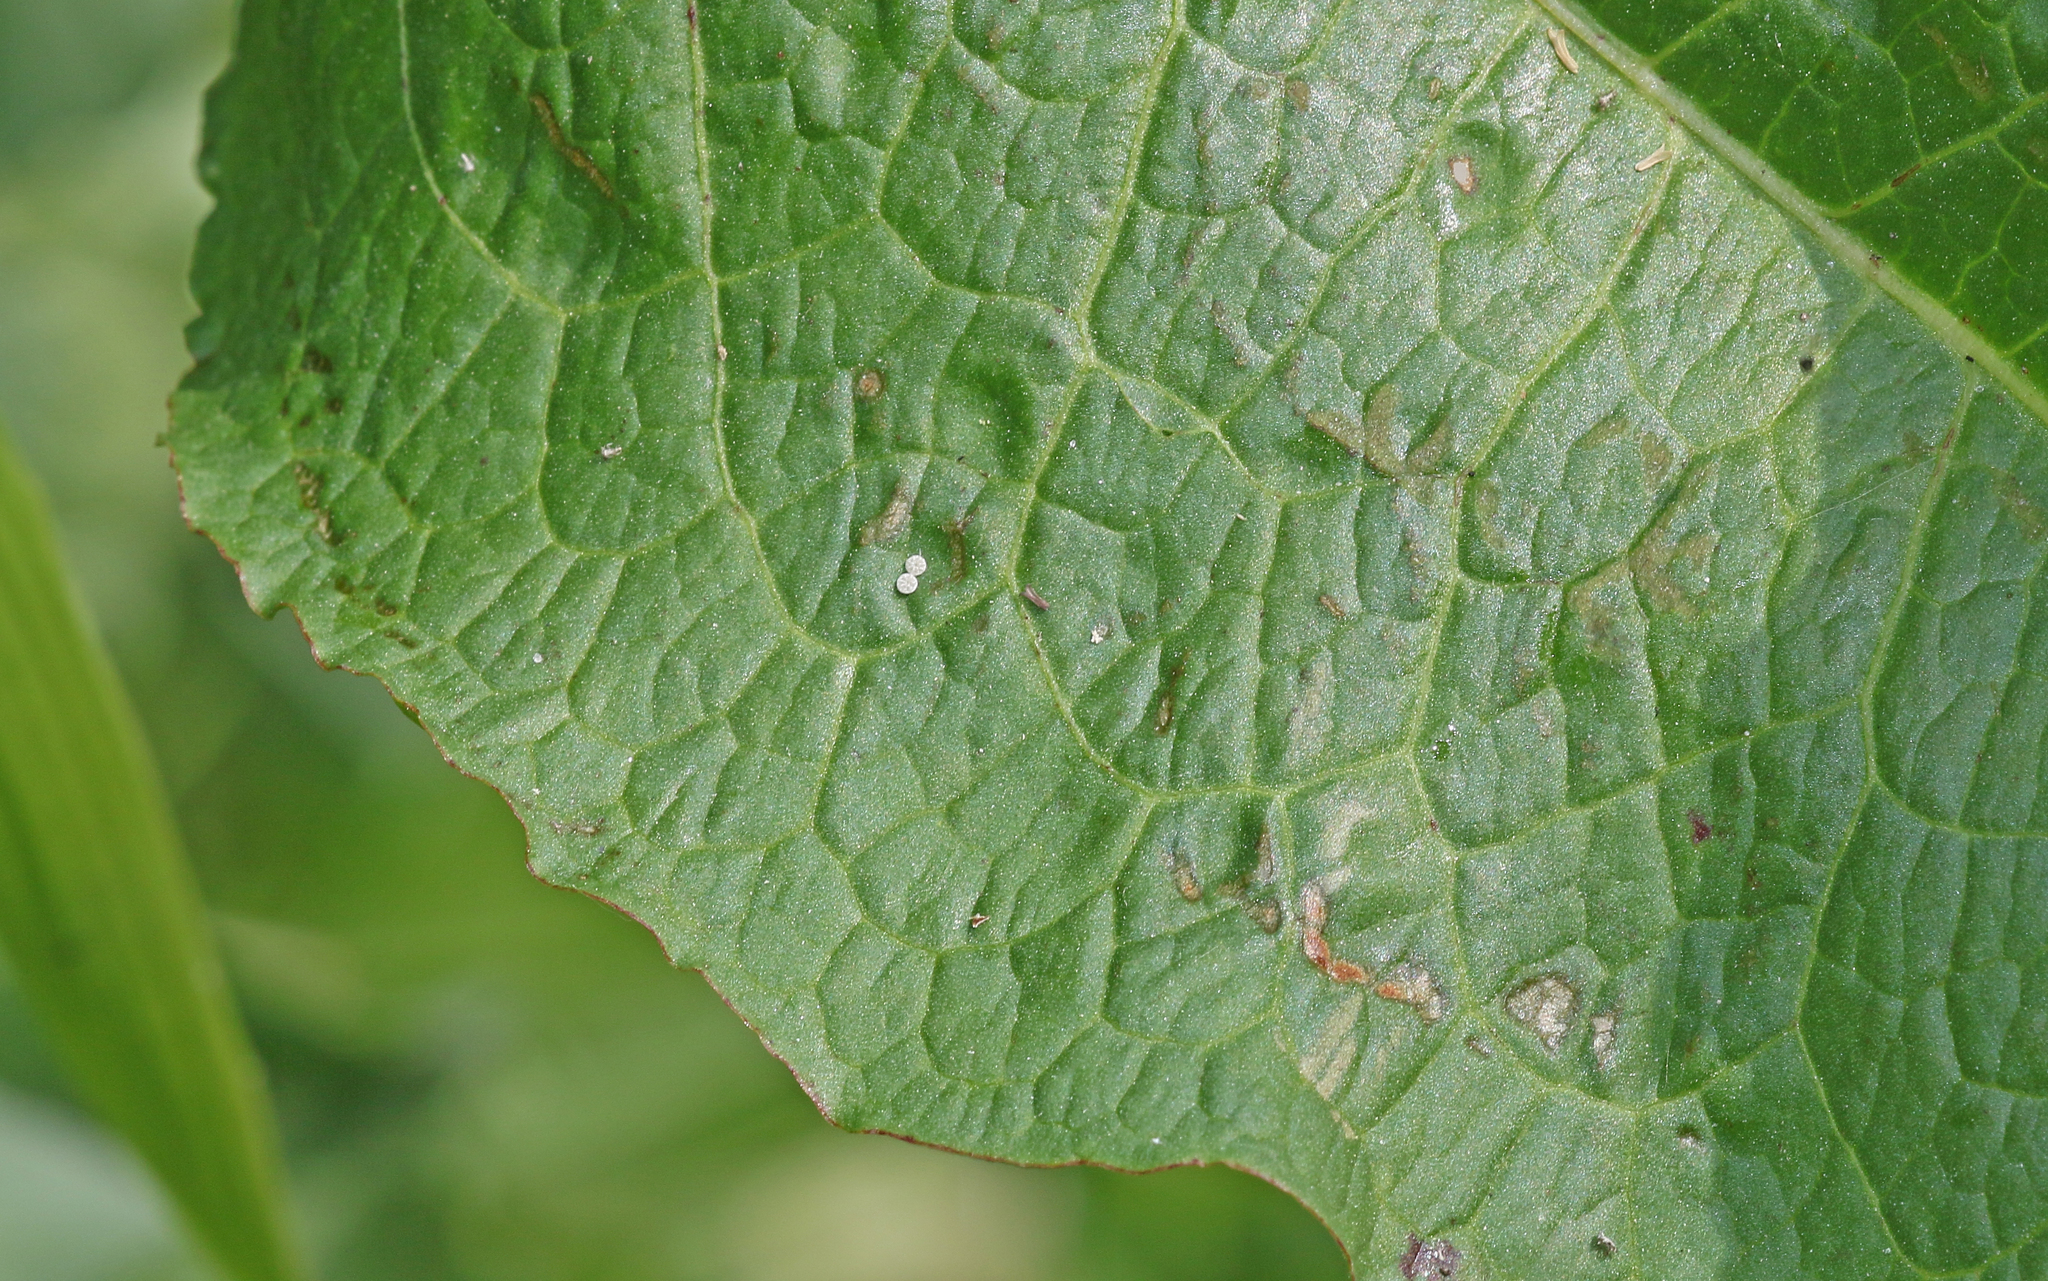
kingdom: Animalia
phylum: Arthropoda
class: Insecta
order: Lepidoptera
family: Lycaenidae
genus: Lycaena
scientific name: Lycaena dispar
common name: Large copper
